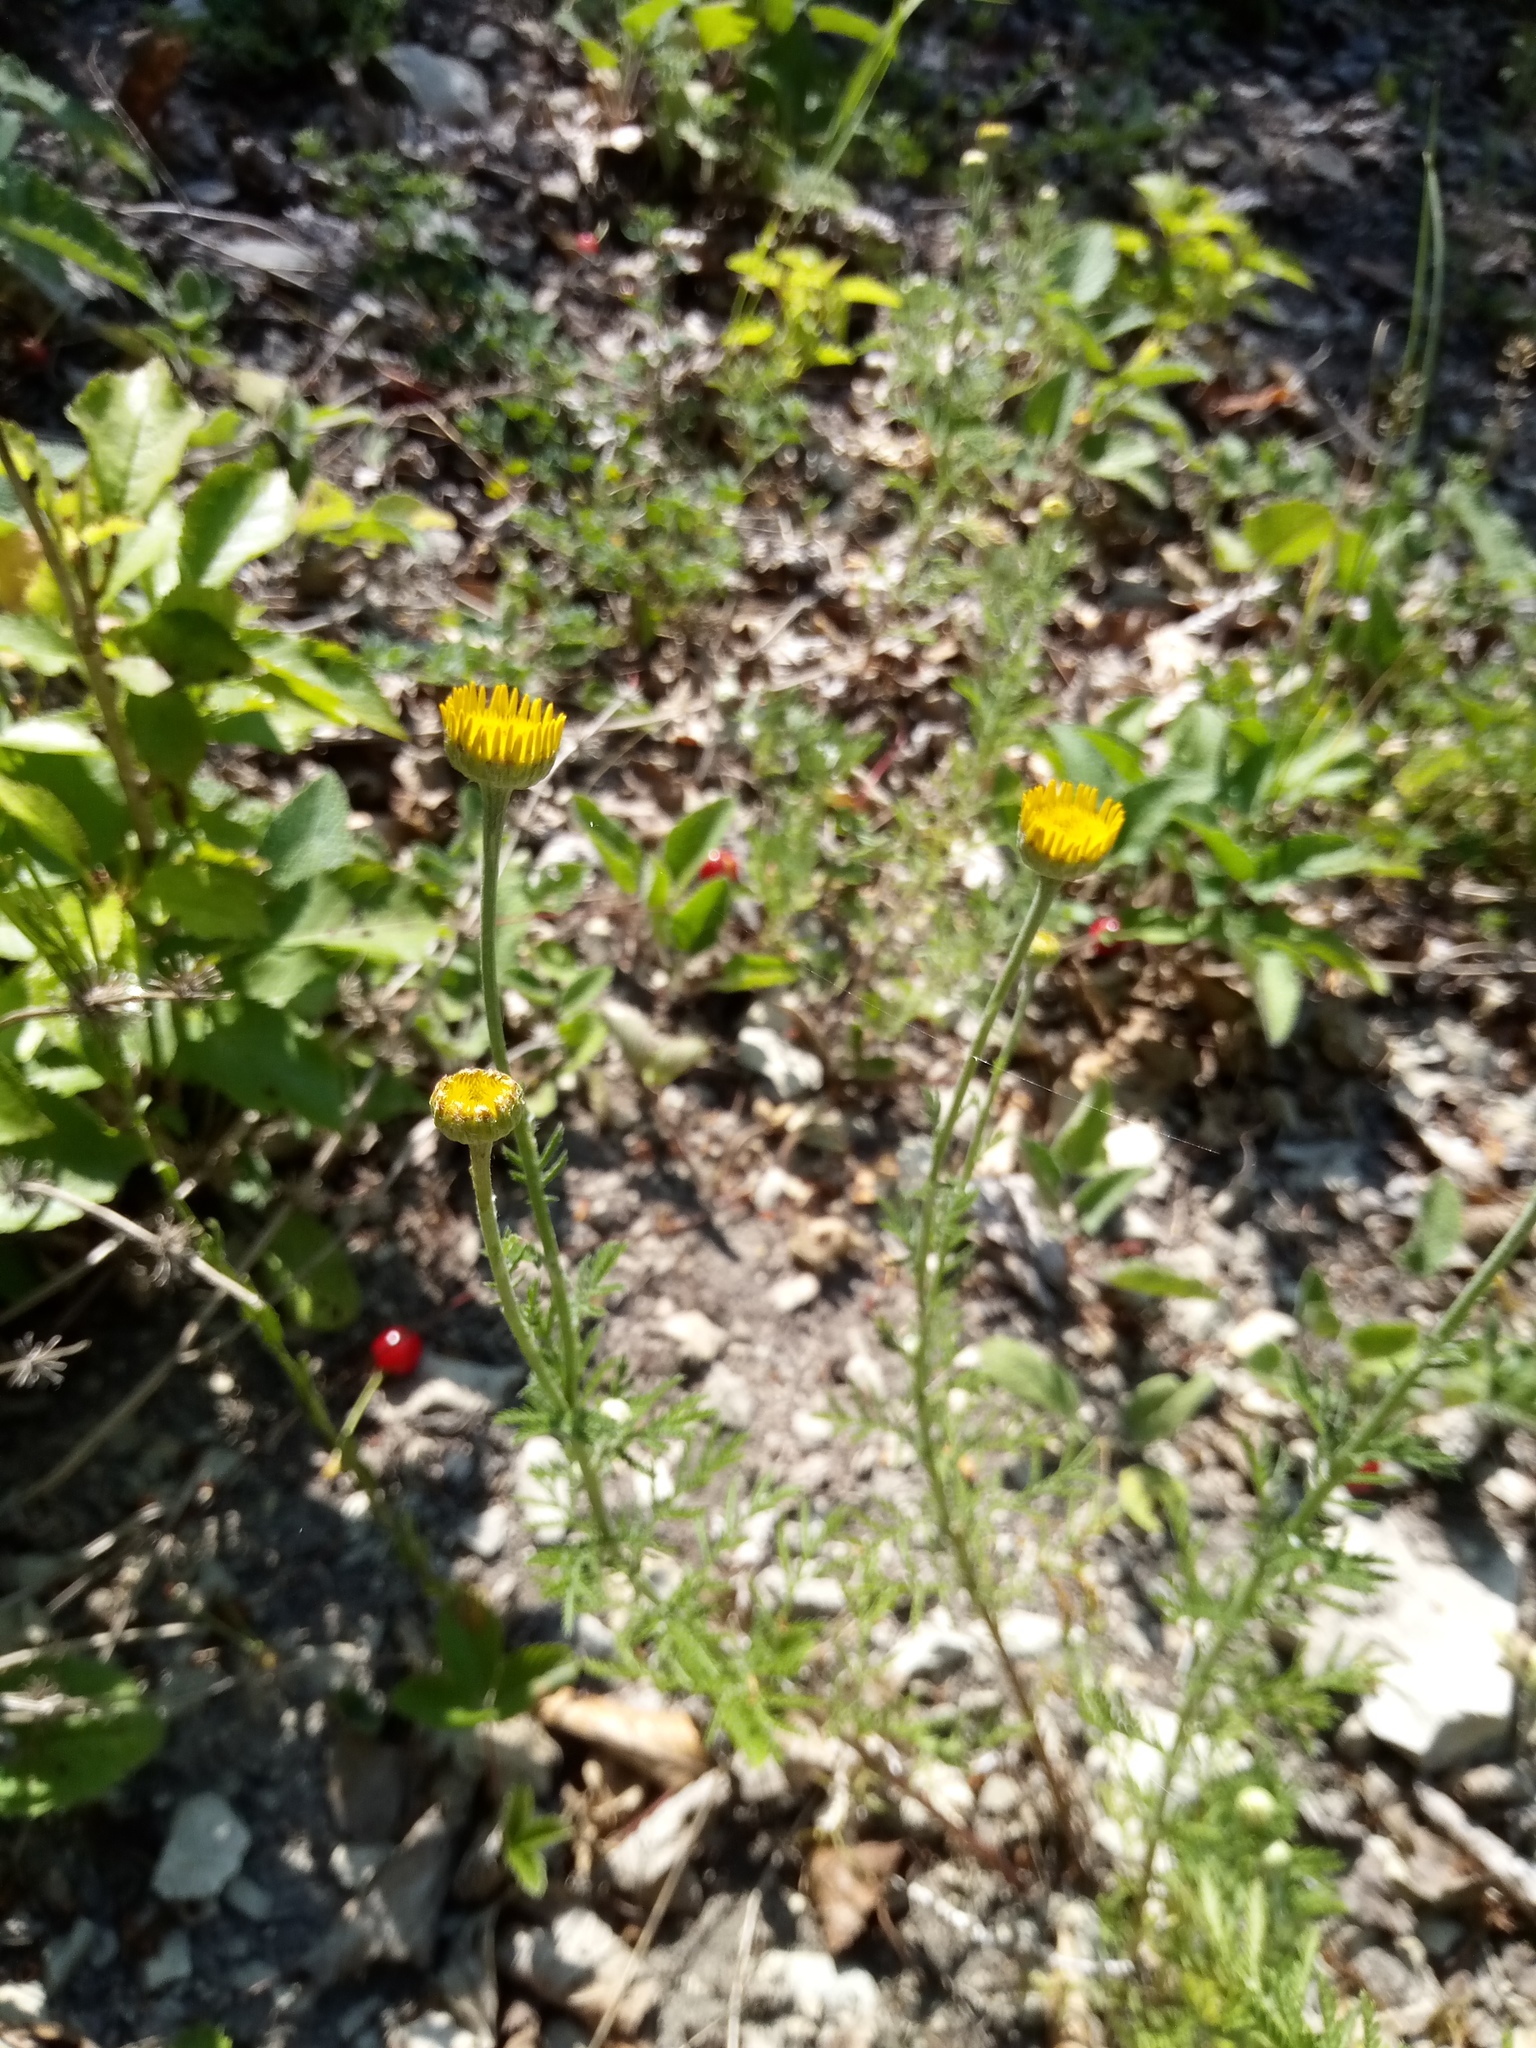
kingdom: Plantae
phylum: Tracheophyta
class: Magnoliopsida
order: Asterales
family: Asteraceae
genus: Cota
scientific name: Cota tinctoria
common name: Golden chamomile
